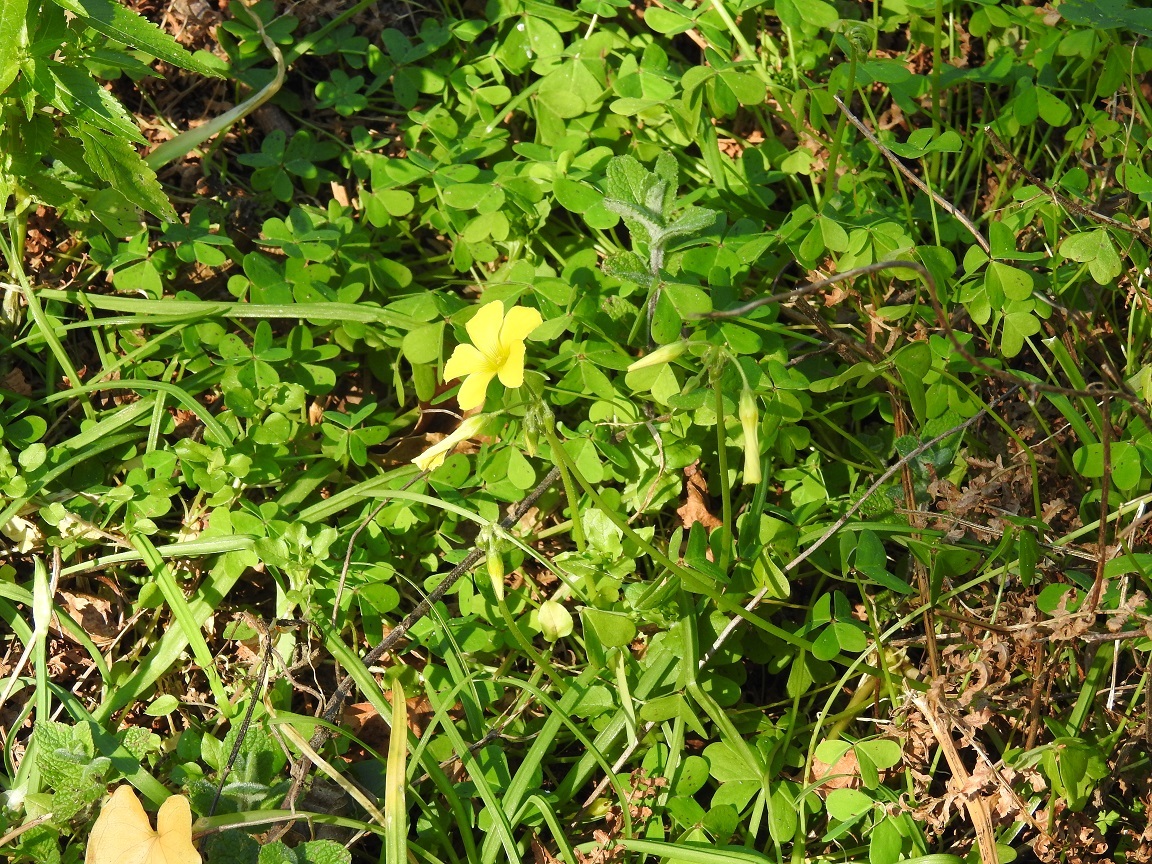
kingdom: Plantae
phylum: Tracheophyta
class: Magnoliopsida
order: Oxalidales
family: Oxalidaceae
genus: Oxalis
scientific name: Oxalis pes-caprae
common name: Bermuda-buttercup
